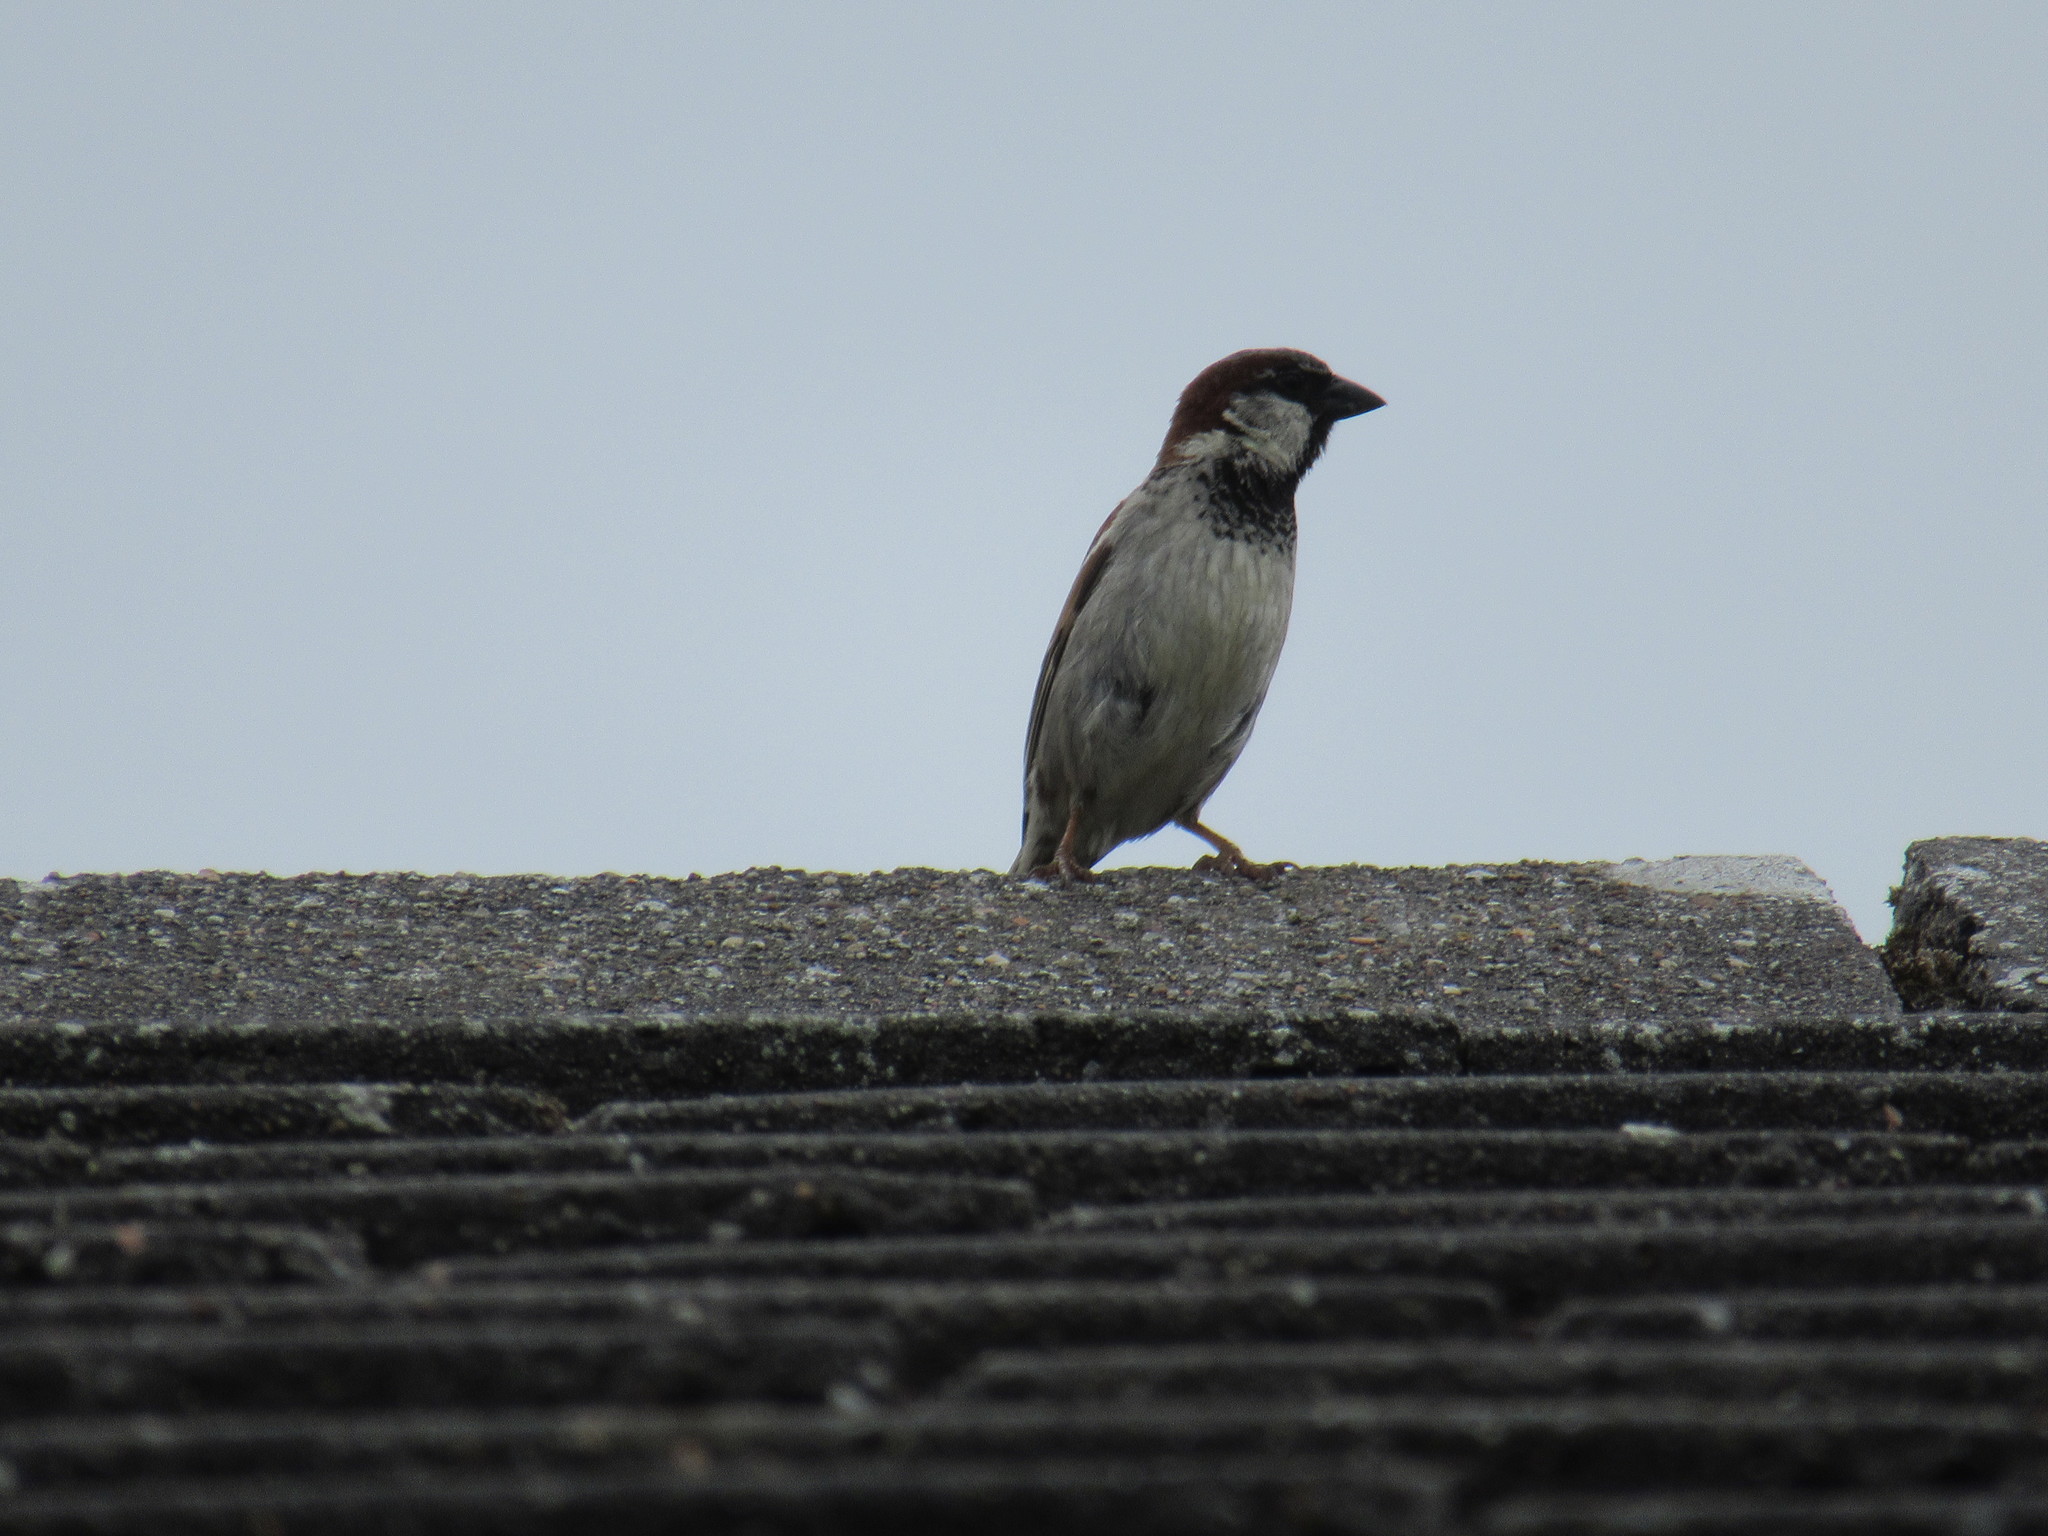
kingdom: Animalia
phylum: Chordata
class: Aves
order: Passeriformes
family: Passeridae
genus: Passer
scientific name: Passer domesticus
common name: House sparrow
